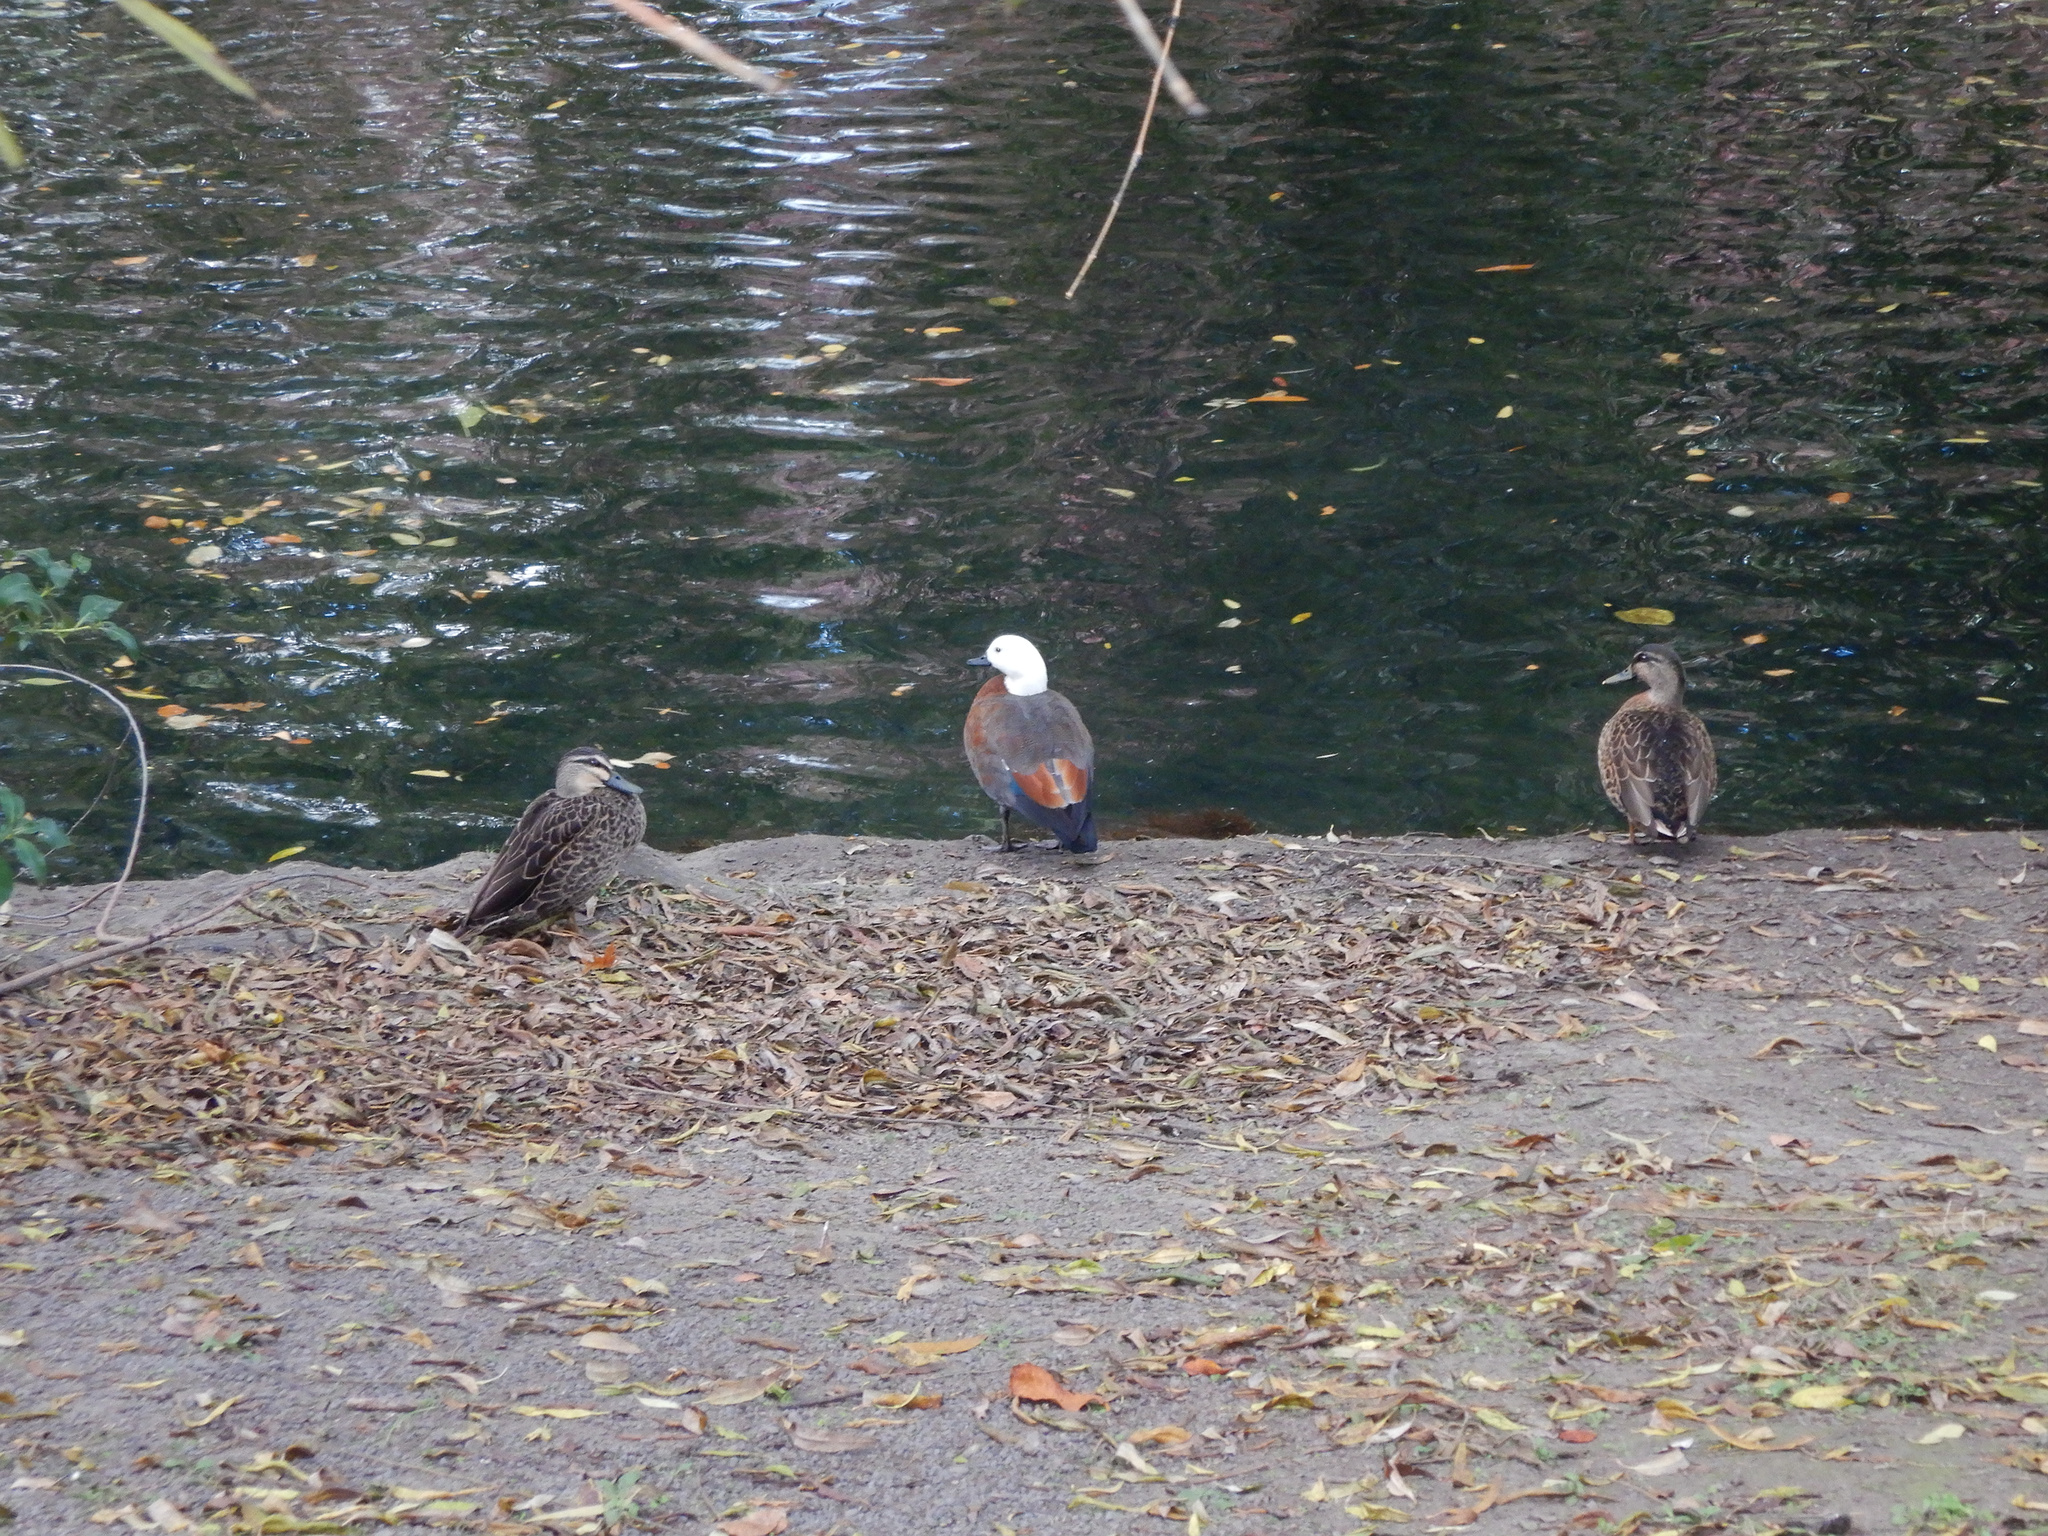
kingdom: Animalia
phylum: Chordata
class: Aves
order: Anseriformes
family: Anatidae
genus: Tadorna
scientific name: Tadorna variegata
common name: Paradise shelduck
